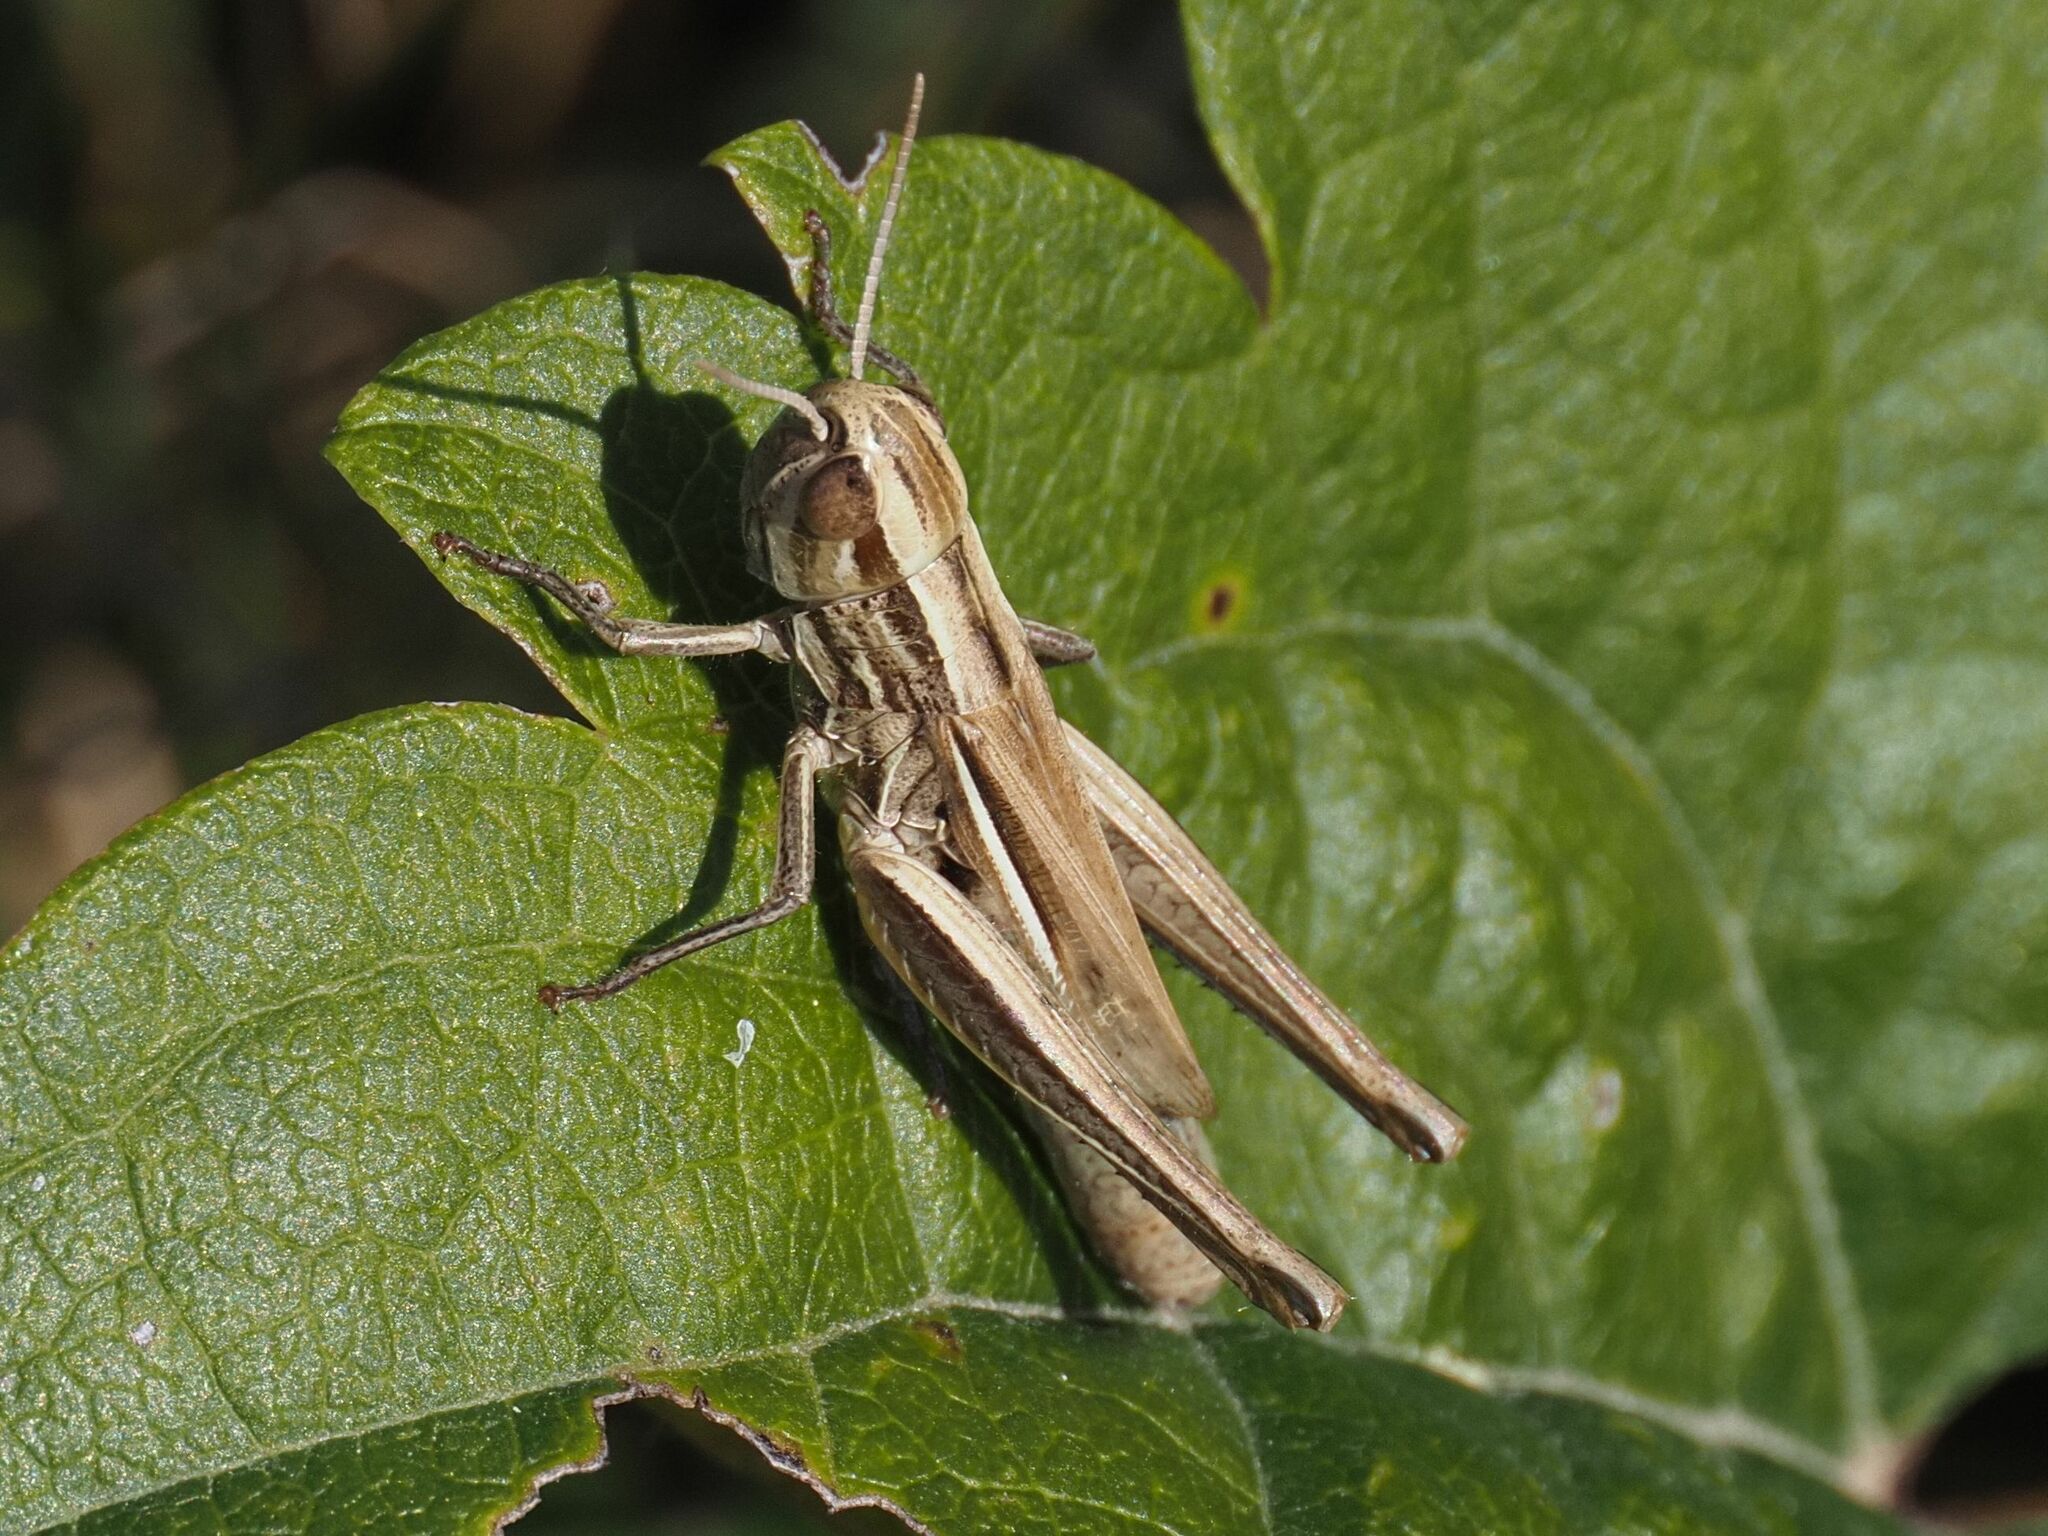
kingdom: Animalia
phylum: Arthropoda
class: Insecta
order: Orthoptera
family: Acrididae
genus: Euchorthippus
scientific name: Euchorthippus declivus
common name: Common straw grasshopper
